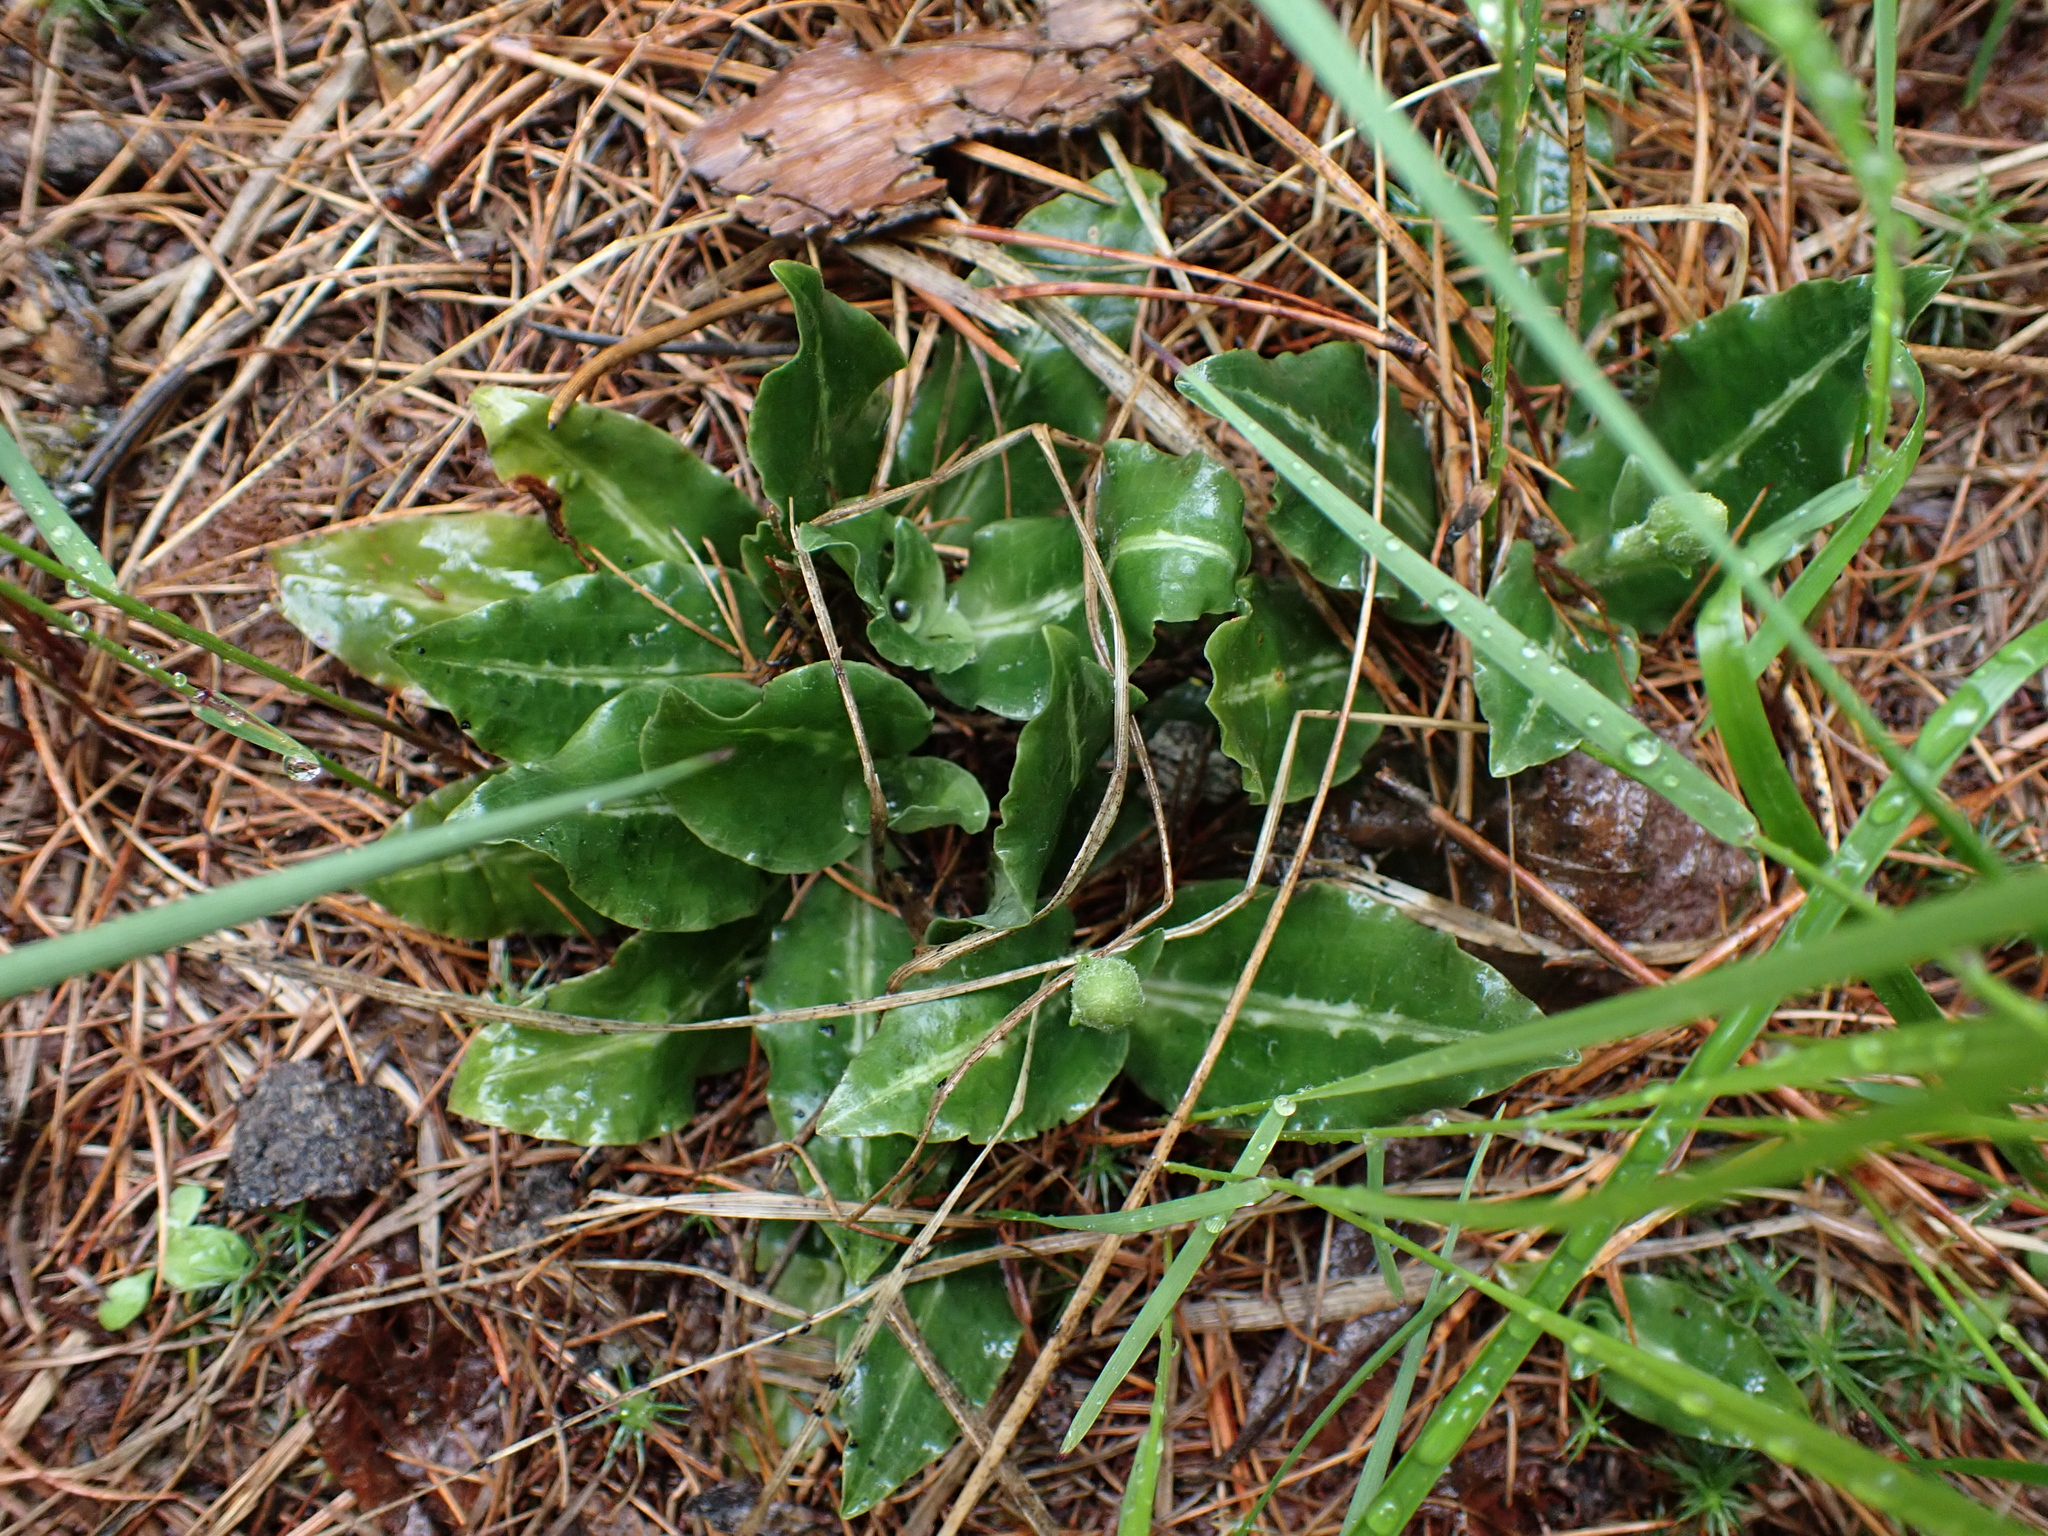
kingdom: Plantae
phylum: Tracheophyta
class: Liliopsida
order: Asparagales
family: Orchidaceae
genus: Goodyera
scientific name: Goodyera oblongifolia
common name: Giant rattlesnake-plantain
